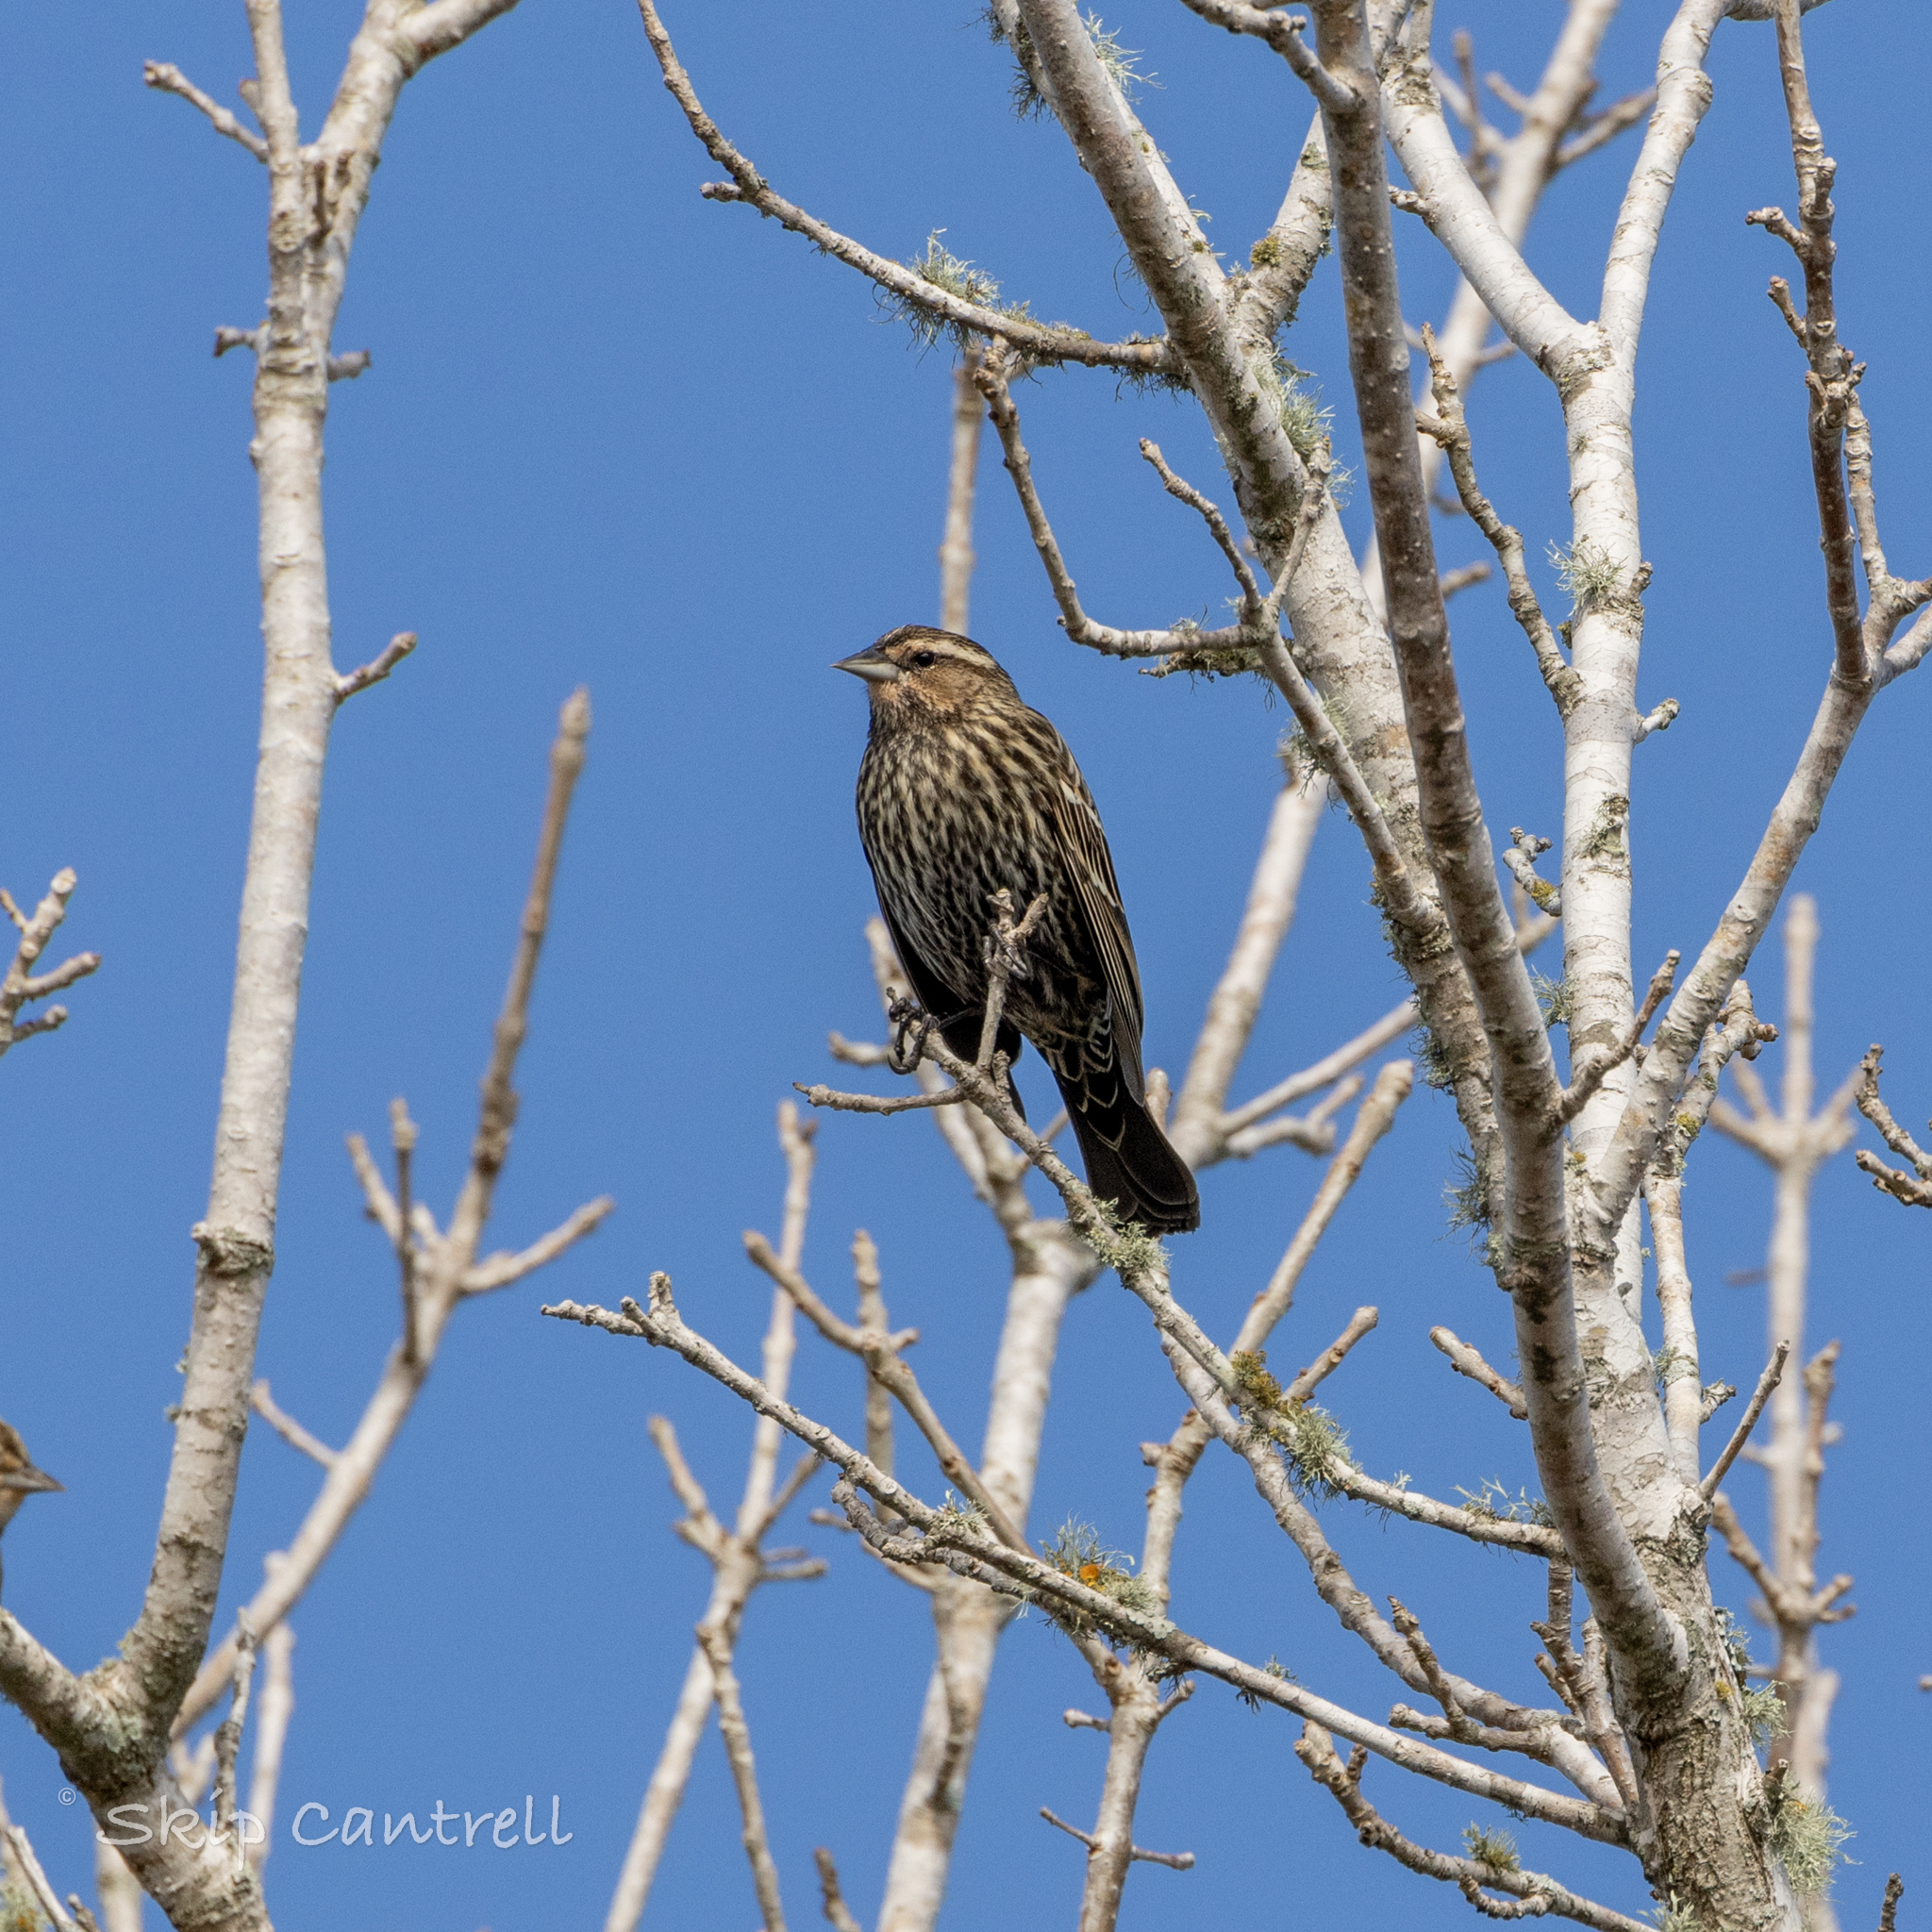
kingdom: Animalia
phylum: Chordata
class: Aves
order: Passeriformes
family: Icteridae
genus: Agelaius
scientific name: Agelaius phoeniceus
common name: Red-winged blackbird
